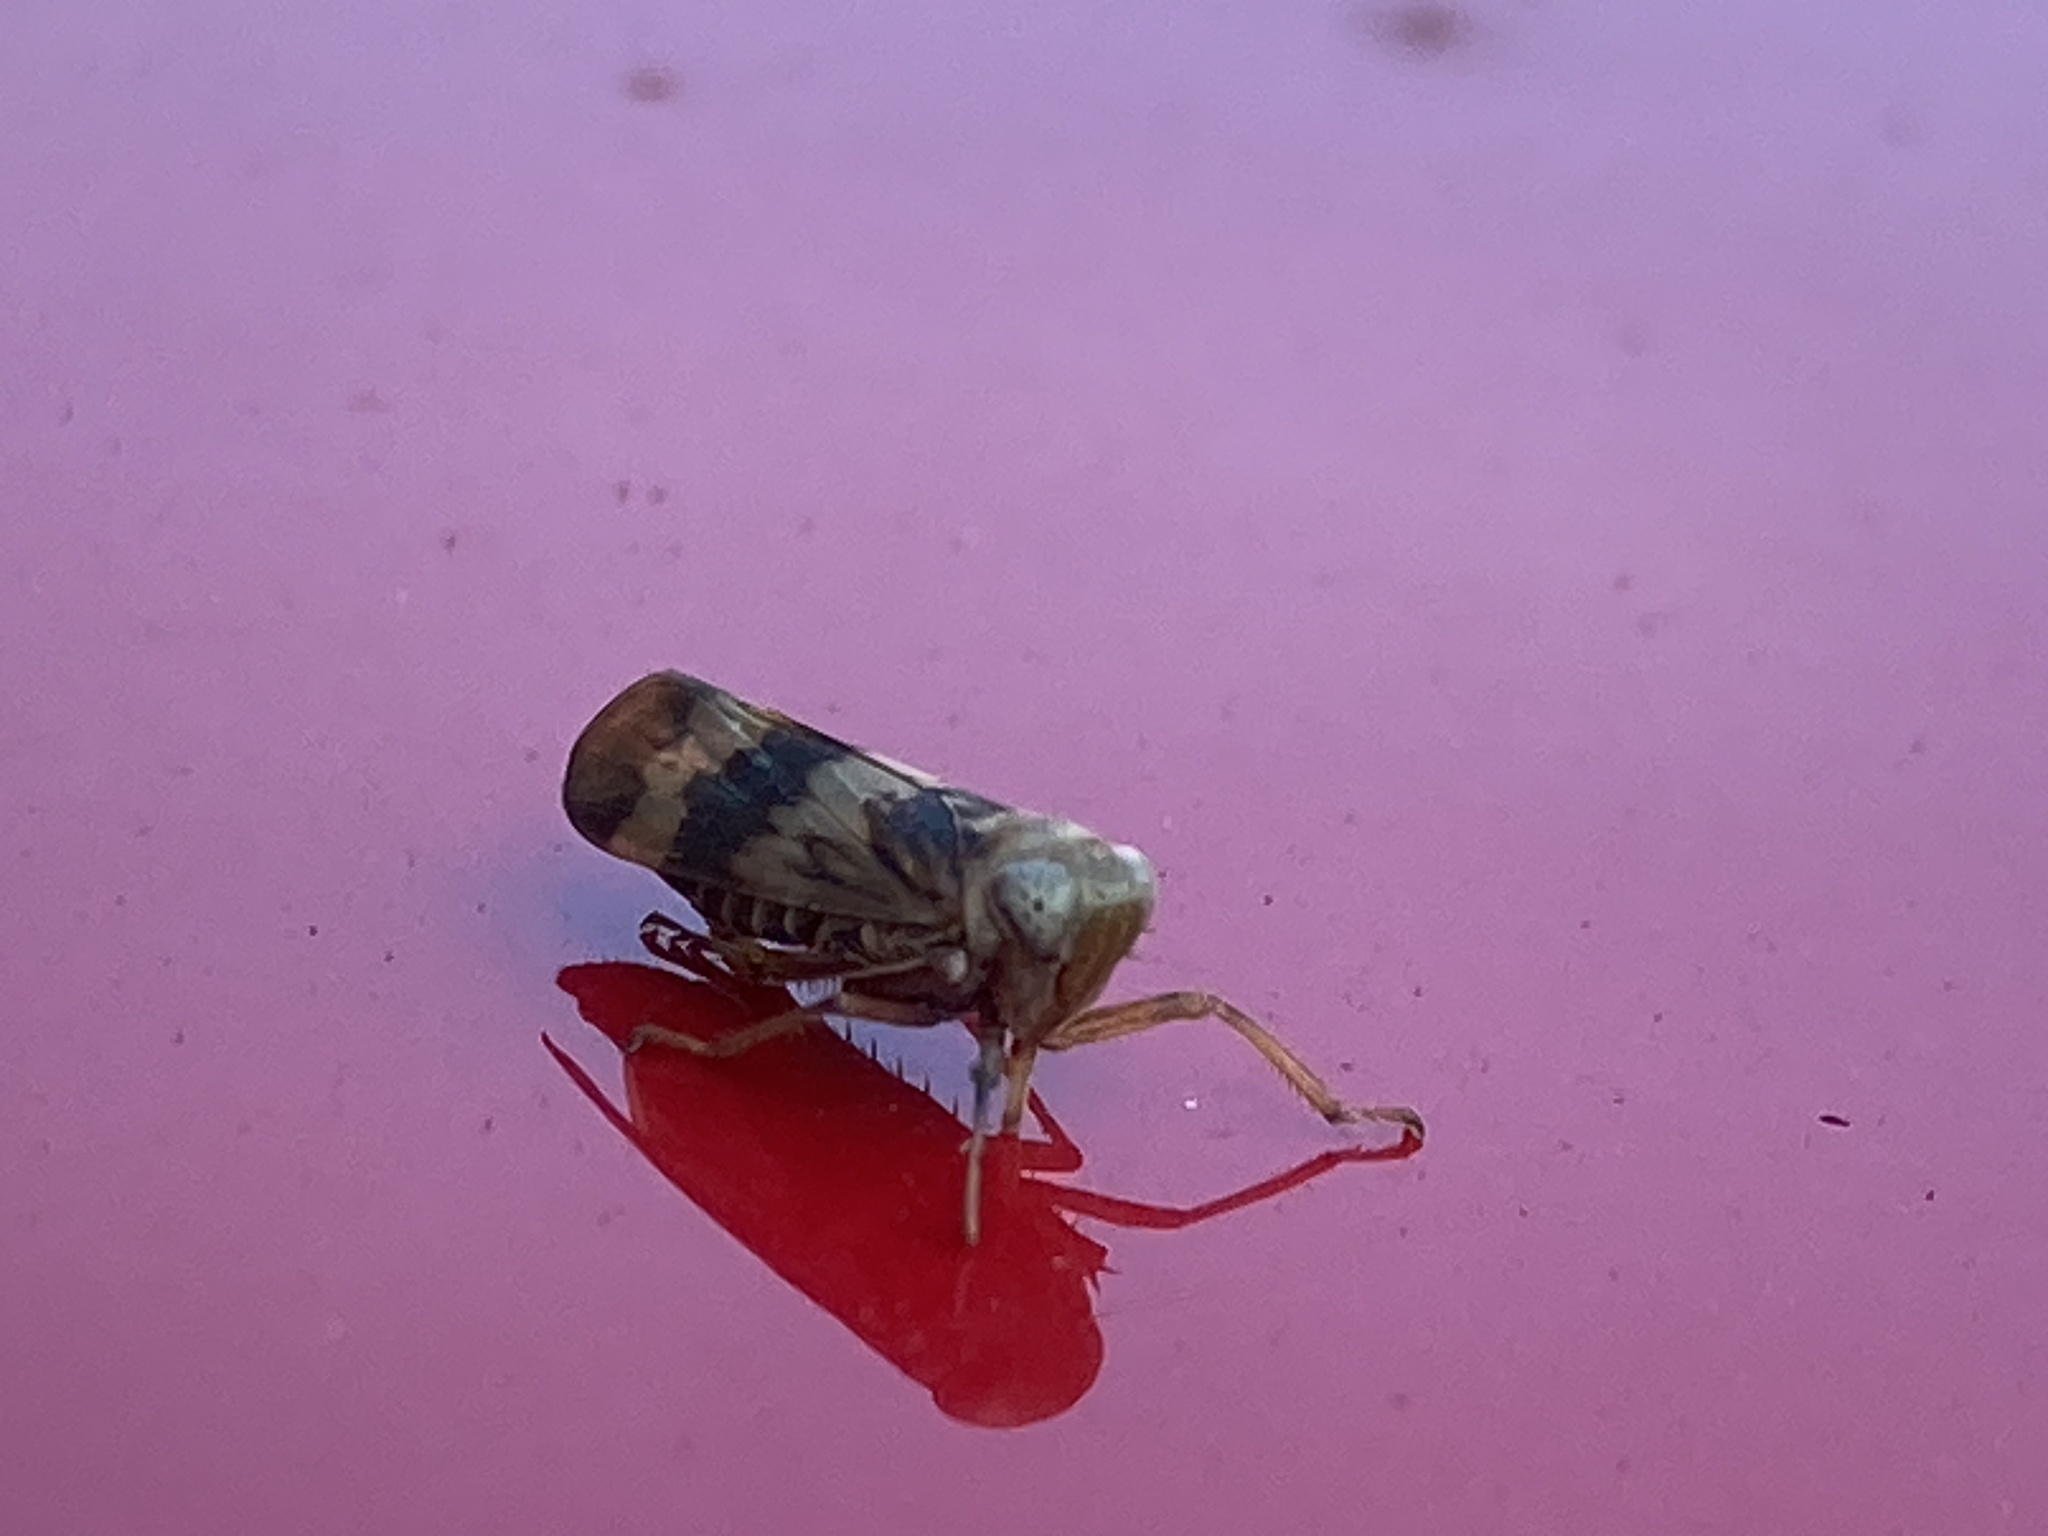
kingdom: Animalia
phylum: Arthropoda
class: Insecta
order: Hemiptera
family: Cicadellidae
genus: Jikradia
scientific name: Jikradia olitoria
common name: Coppery leafhopper
